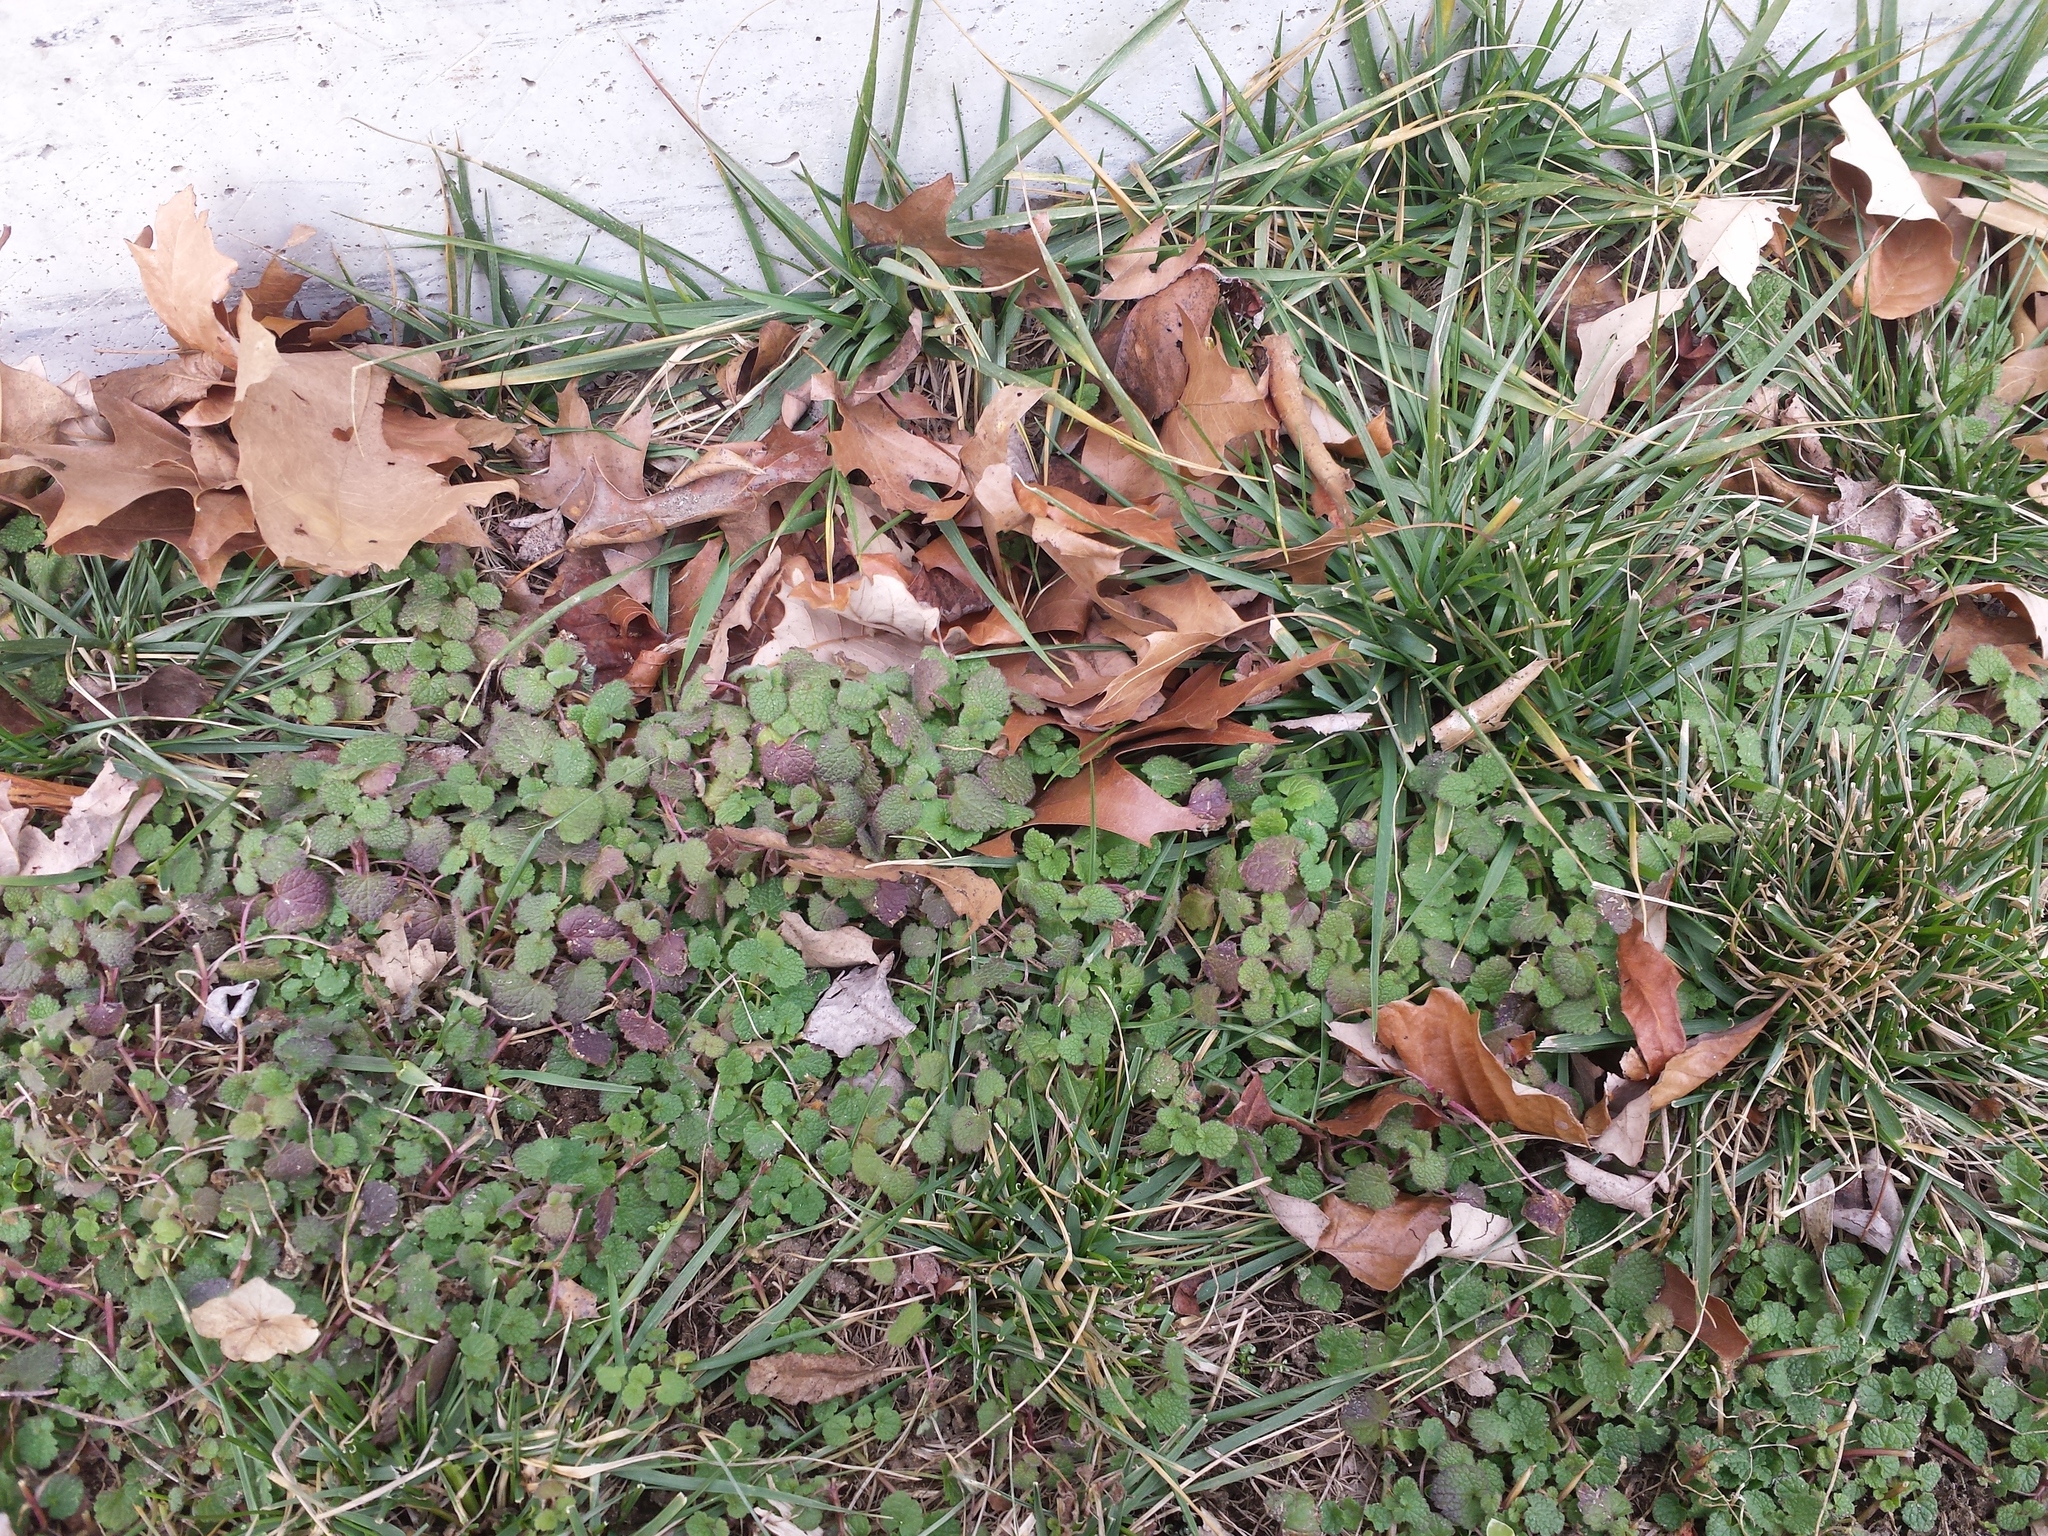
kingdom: Plantae
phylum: Tracheophyta
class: Magnoliopsida
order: Lamiales
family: Lamiaceae
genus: Lamium
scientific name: Lamium purpureum
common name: Red dead-nettle
